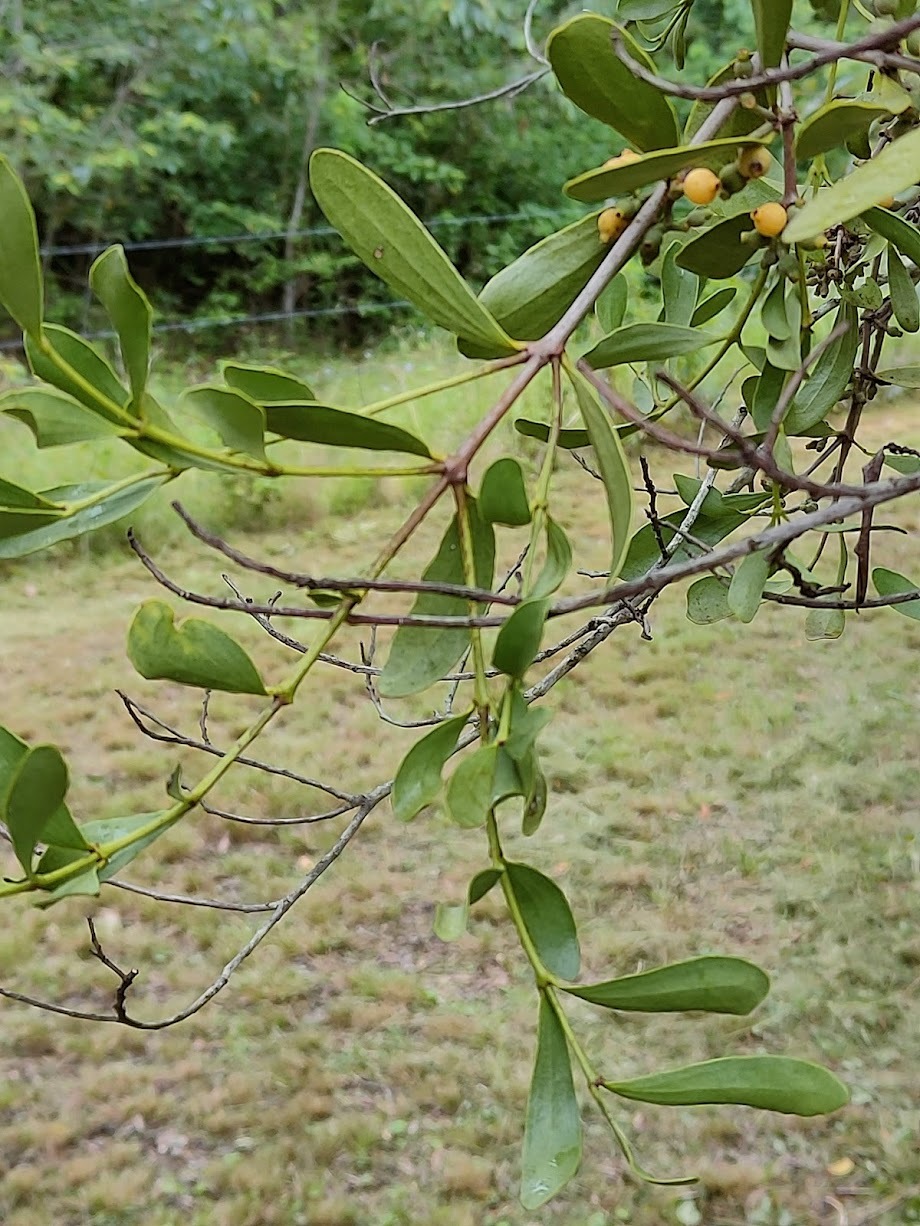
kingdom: Plantae
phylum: Tracheophyta
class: Magnoliopsida
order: Santalales
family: Loranthaceae
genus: Amyema
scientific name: Amyema conspicua
